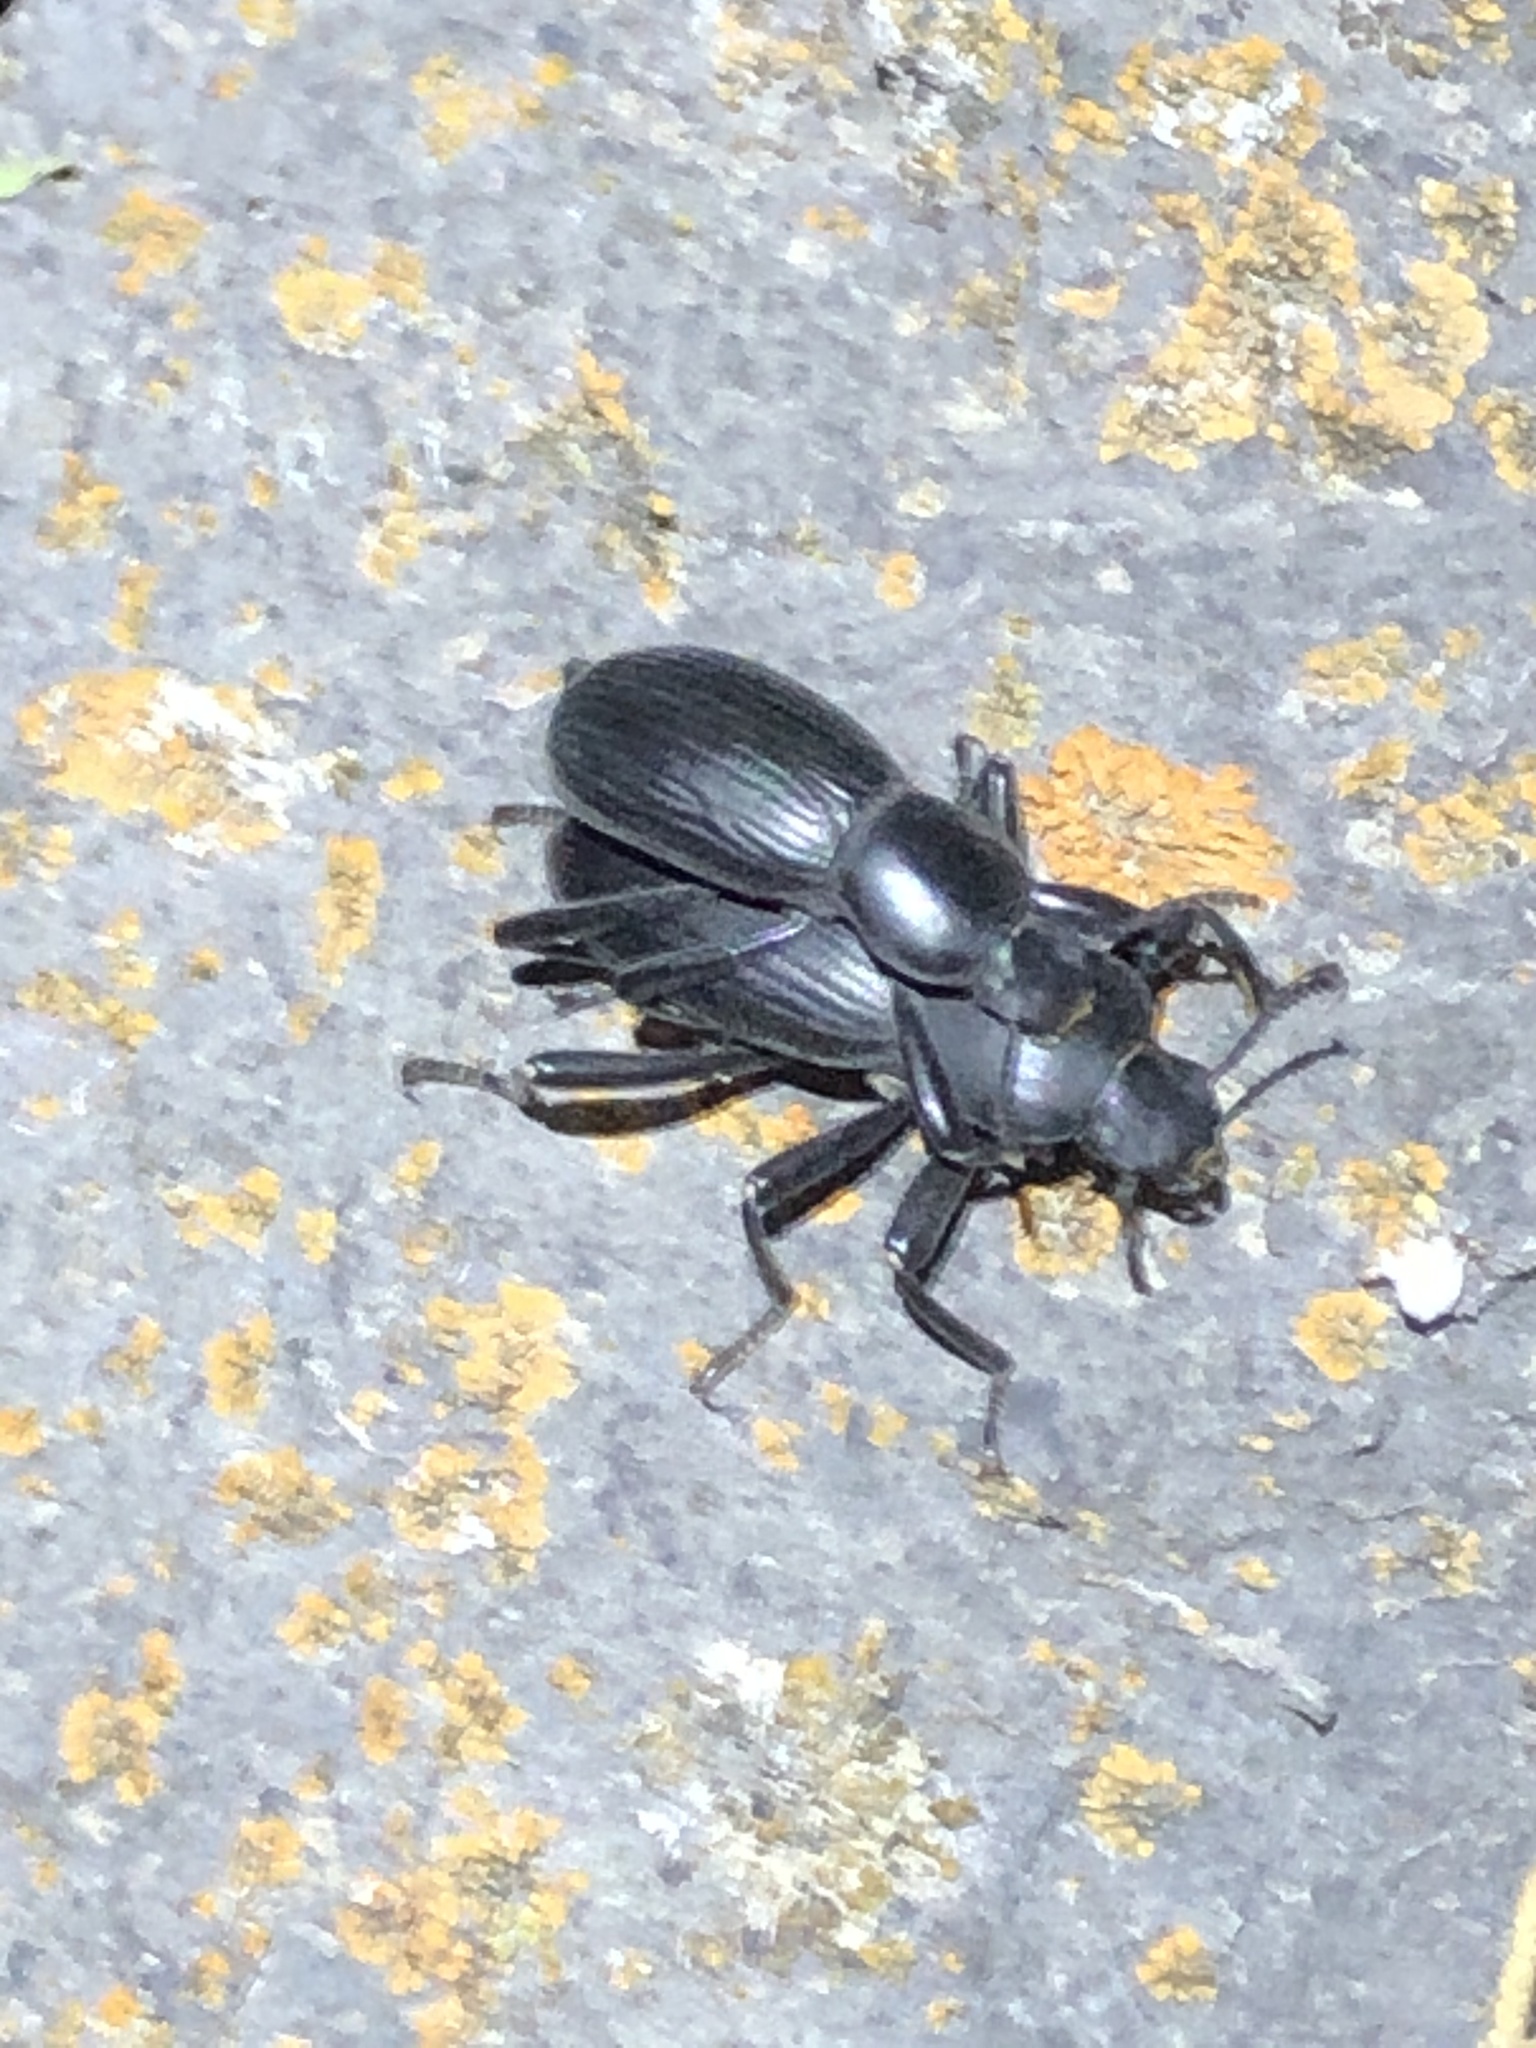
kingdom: Animalia
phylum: Arthropoda
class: Insecta
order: Coleoptera
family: Tenebrionidae
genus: Coelocnemis
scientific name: Coelocnemis sulcata
